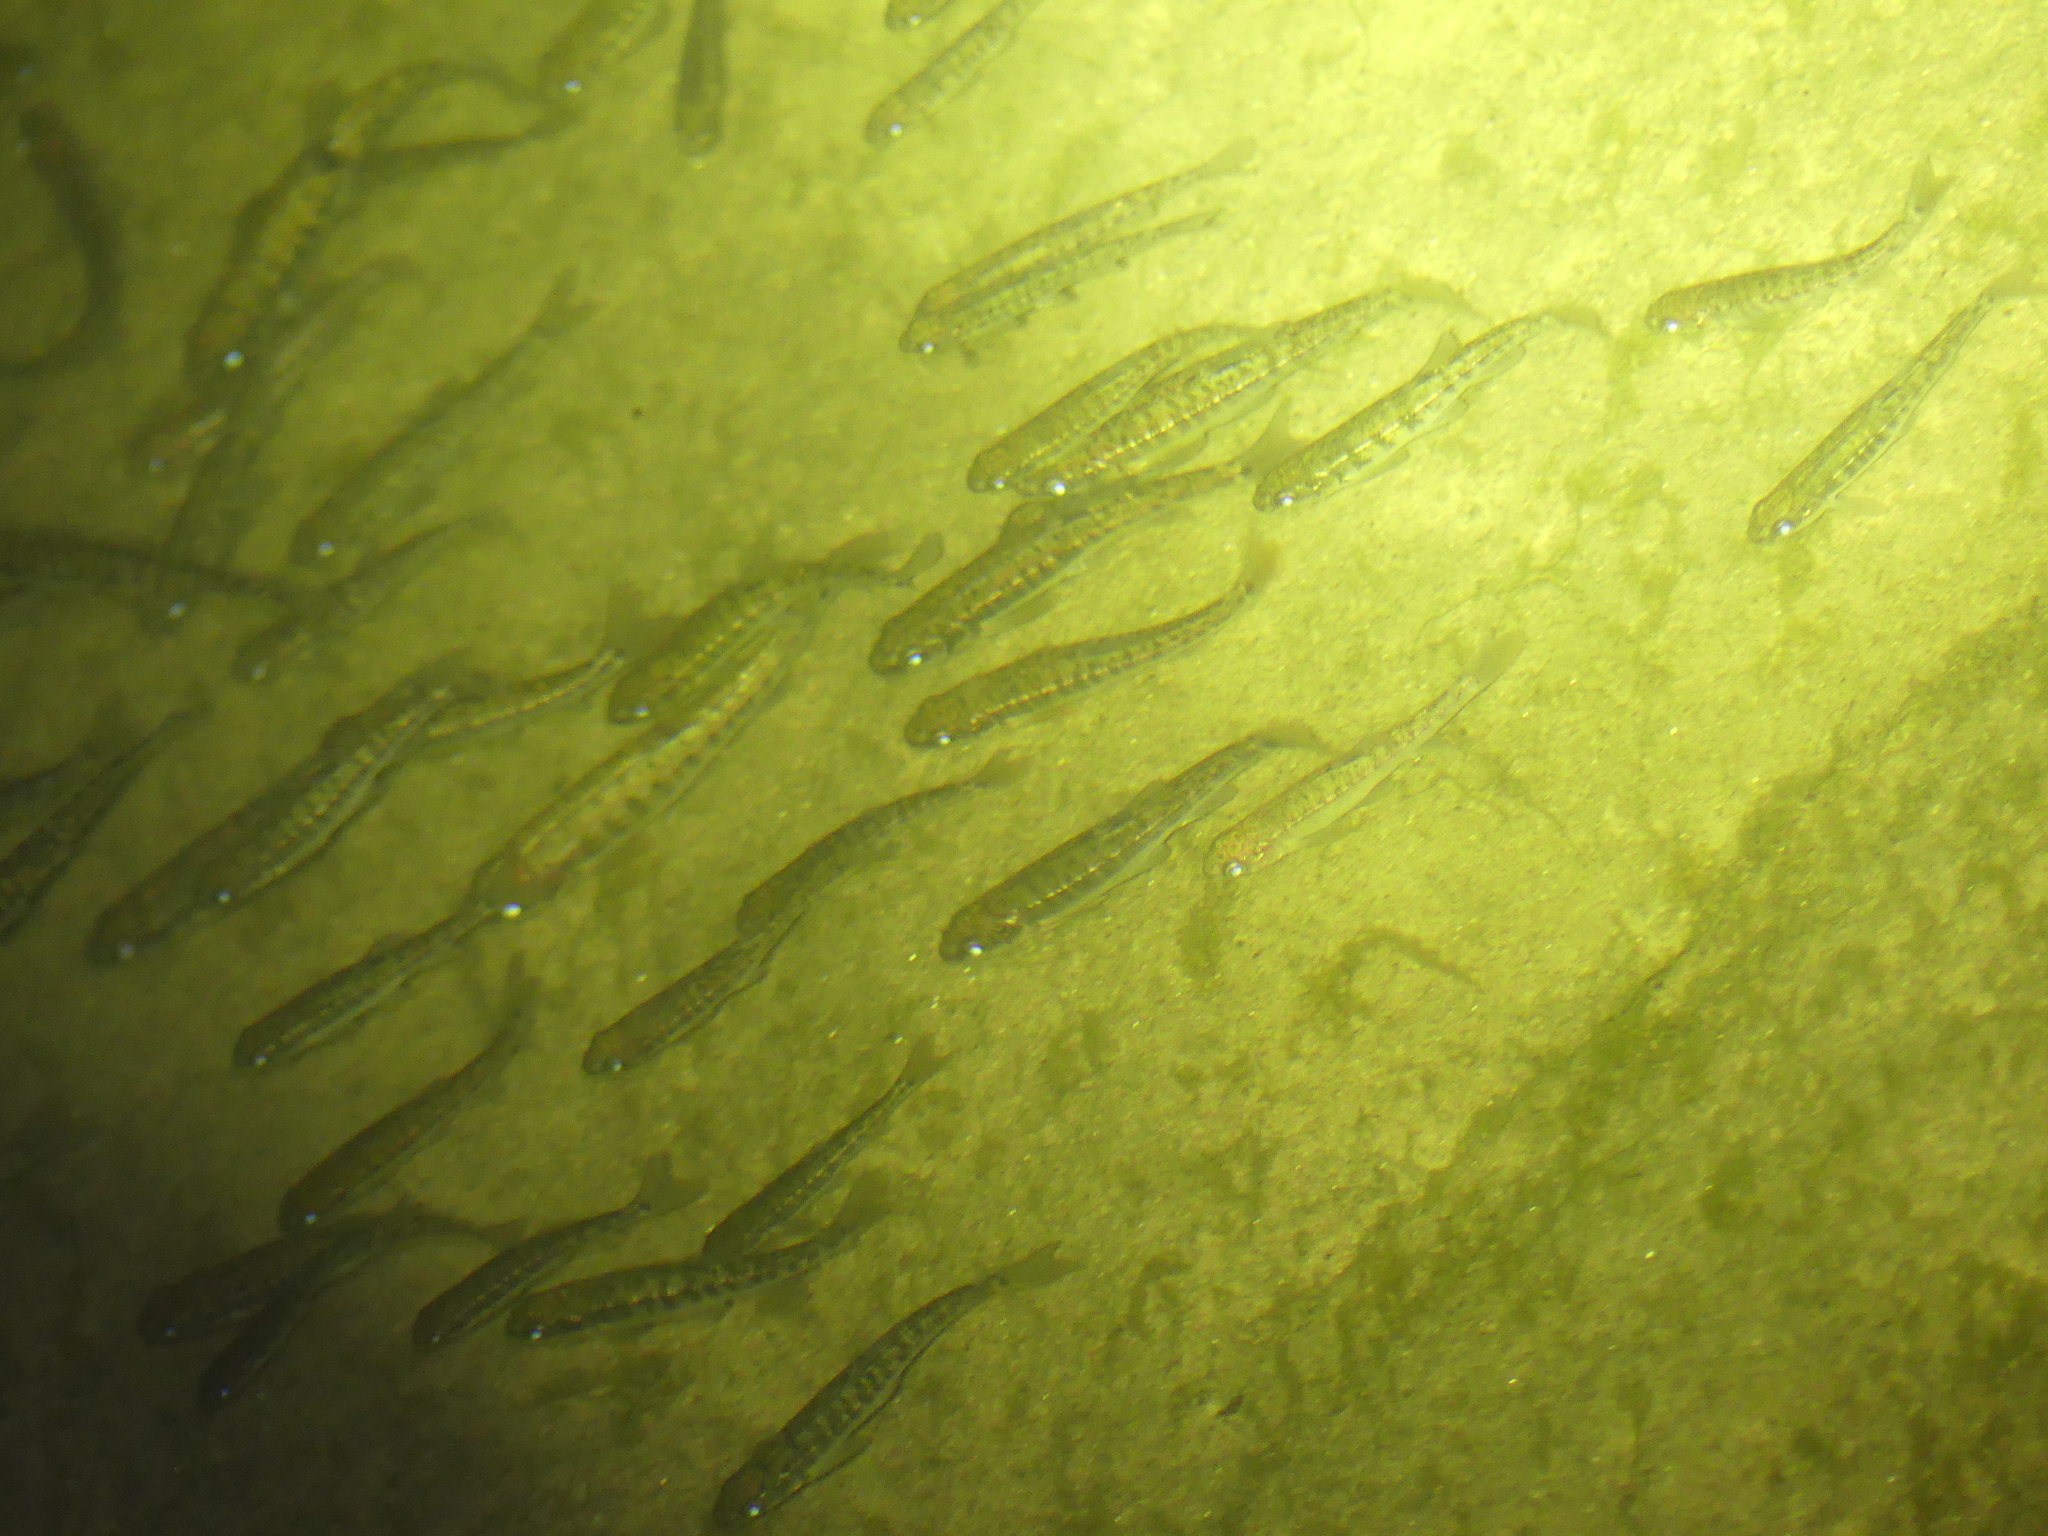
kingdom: Animalia
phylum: Chordata
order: Cypriniformes
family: Cyprinidae
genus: Phoxinus
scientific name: Phoxinus phoxinus
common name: Minnow
